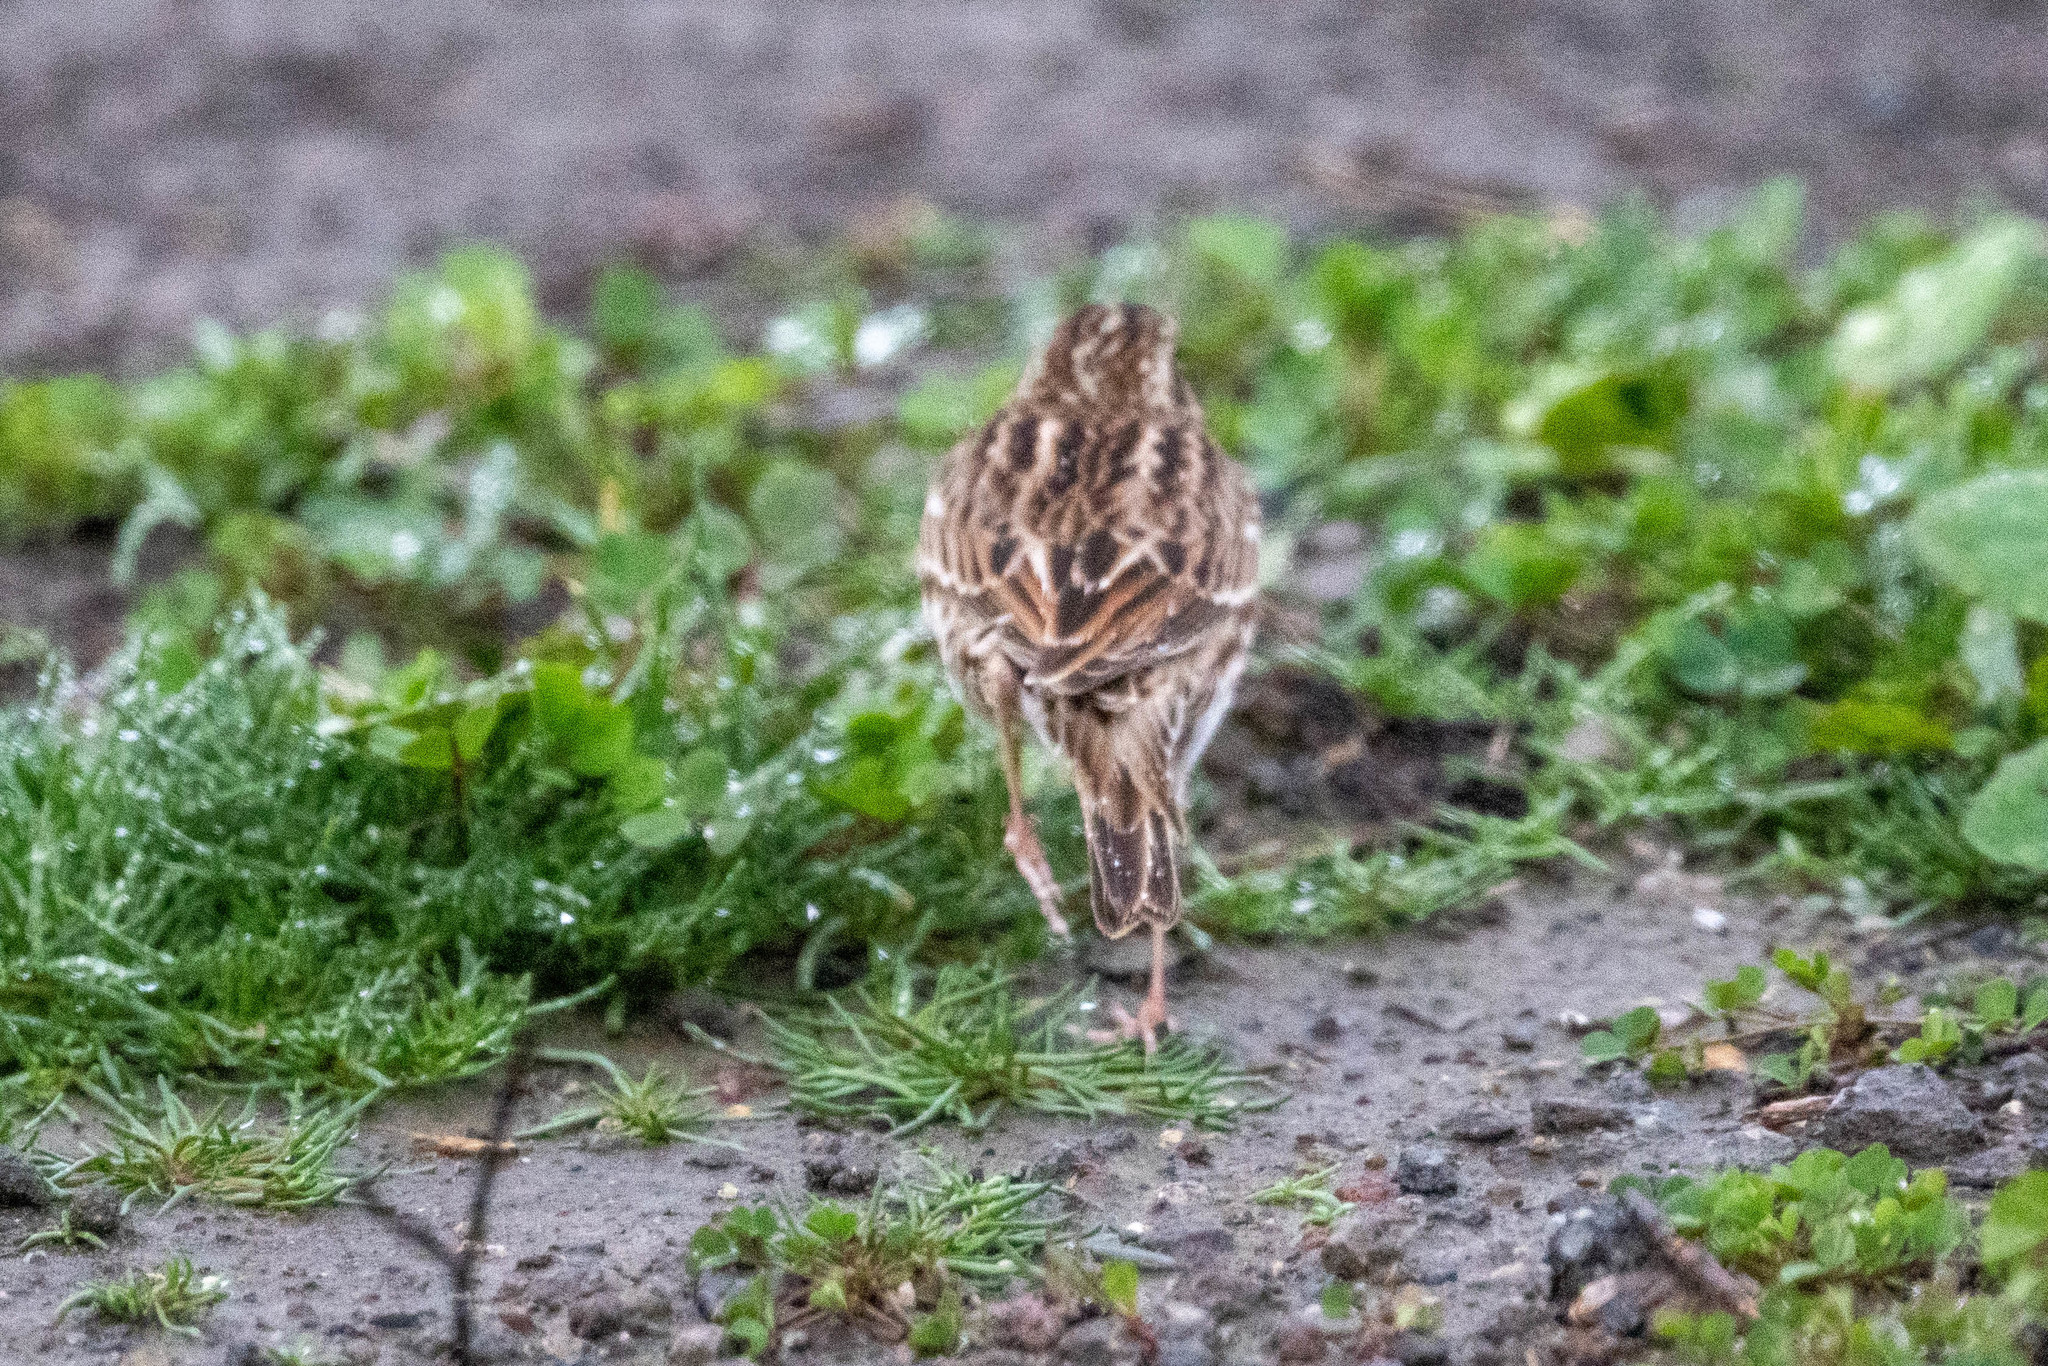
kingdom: Animalia
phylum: Chordata
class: Aves
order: Passeriformes
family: Passerellidae
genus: Passerculus
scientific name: Passerculus sandwichensis
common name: Savannah sparrow
